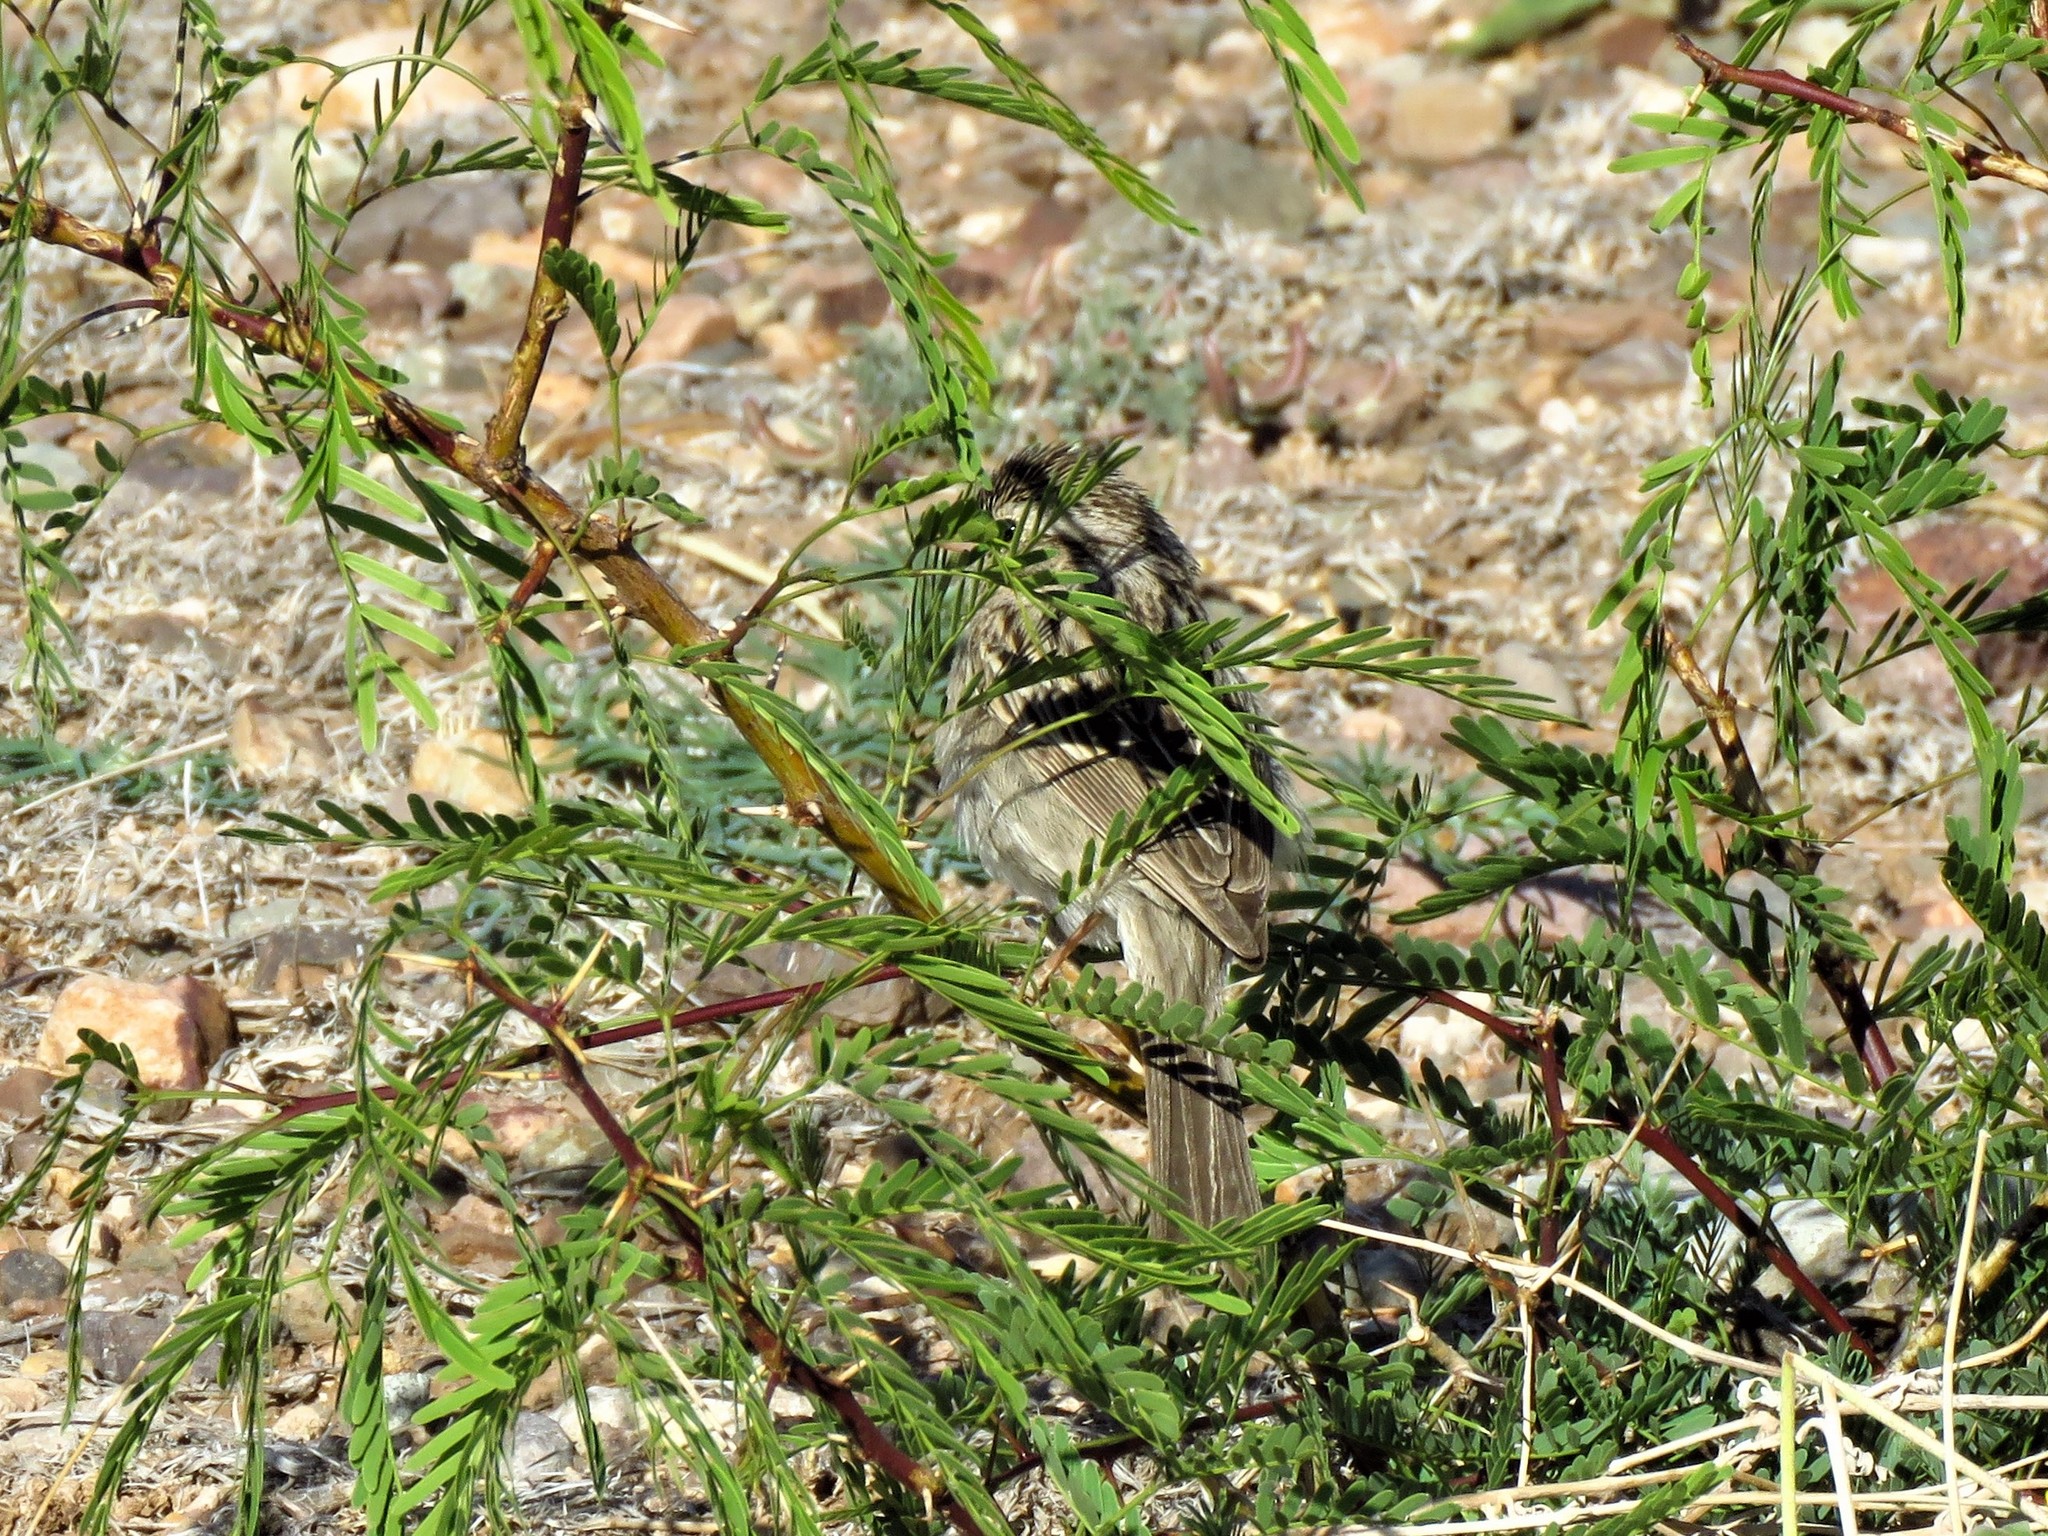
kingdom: Animalia
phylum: Chordata
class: Aves
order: Passeriformes
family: Passerellidae
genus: Spizella
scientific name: Spizella breweri
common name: Brewer's sparrow
